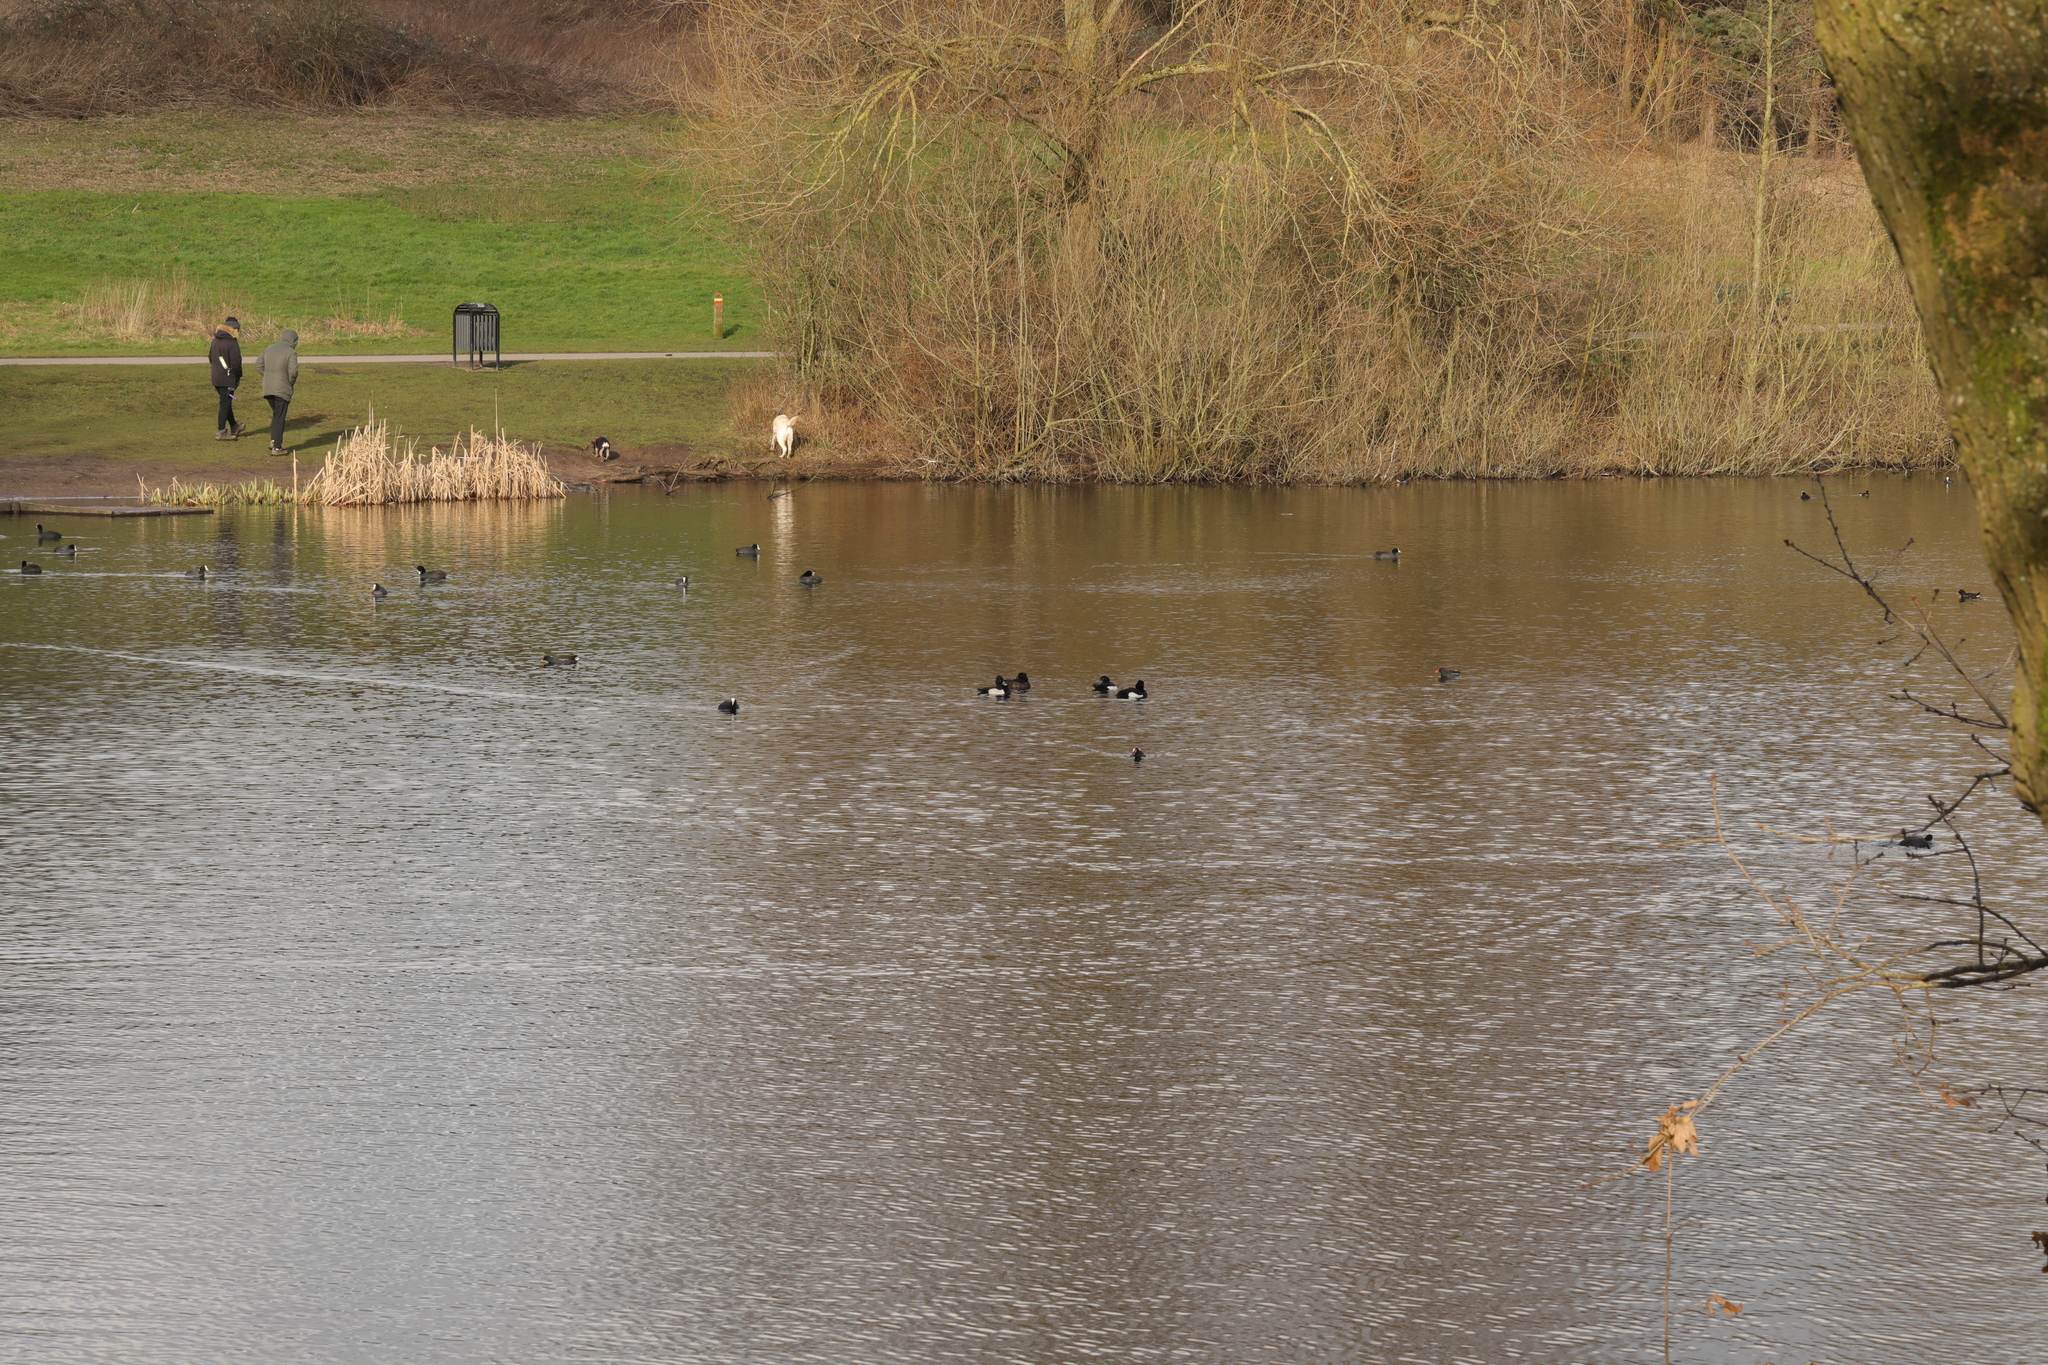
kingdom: Animalia
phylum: Chordata
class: Aves
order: Anseriformes
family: Anatidae
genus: Aythya
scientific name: Aythya fuligula
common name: Tufted duck
